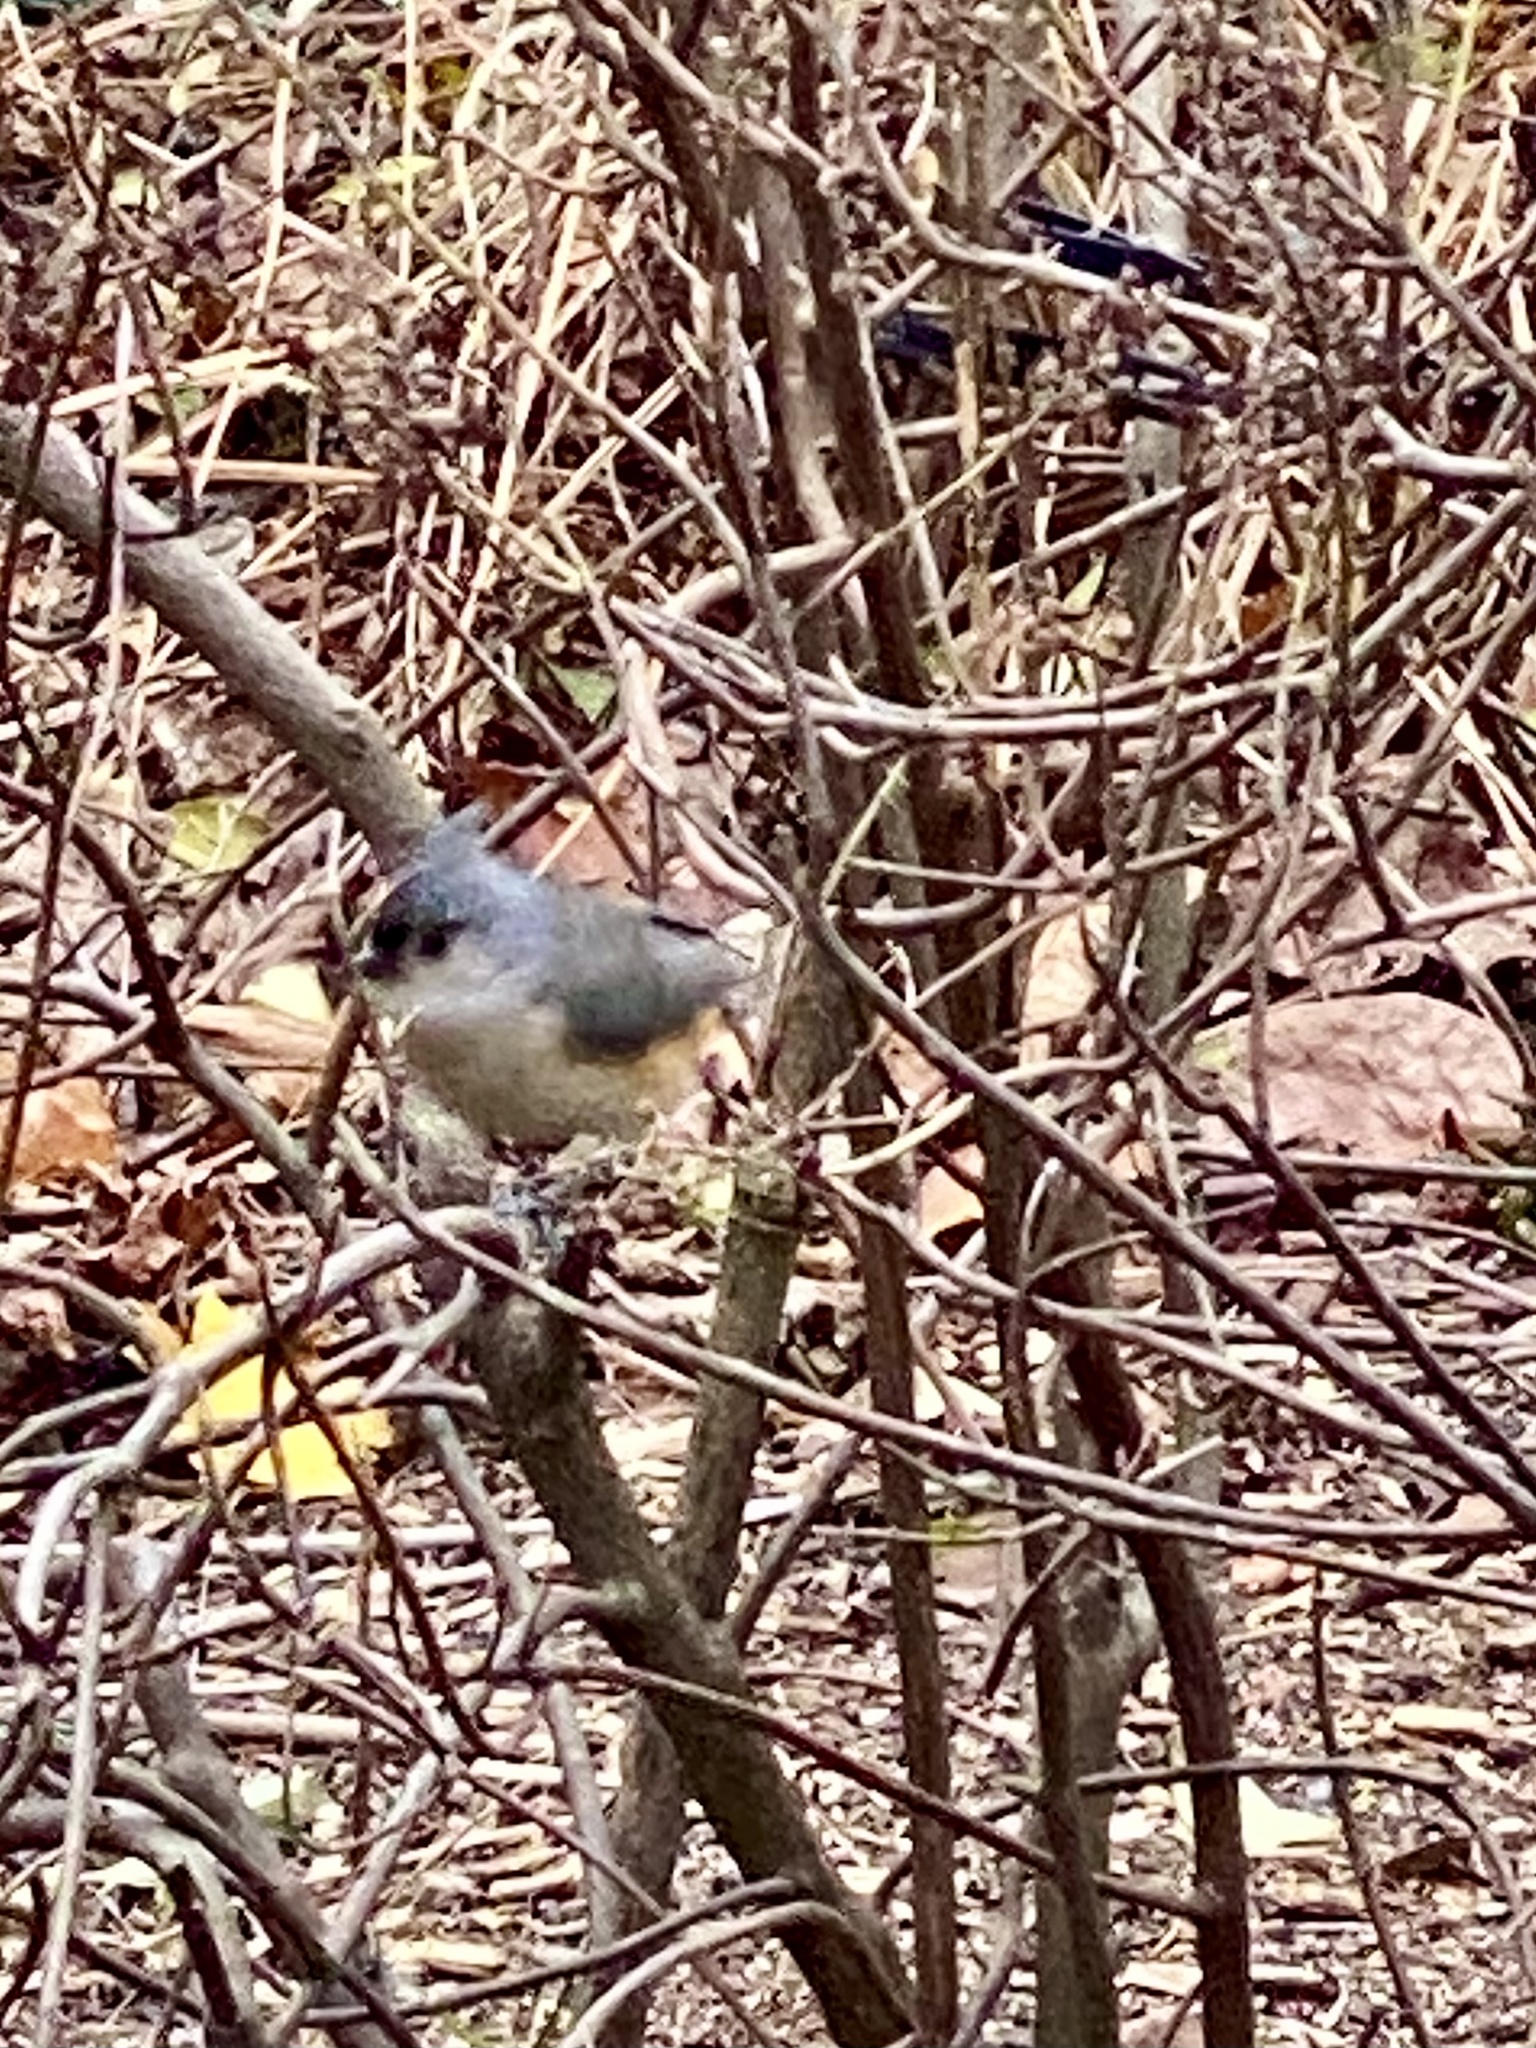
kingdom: Animalia
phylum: Chordata
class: Aves
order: Passeriformes
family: Paridae
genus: Baeolophus
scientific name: Baeolophus bicolor
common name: Tufted titmouse
